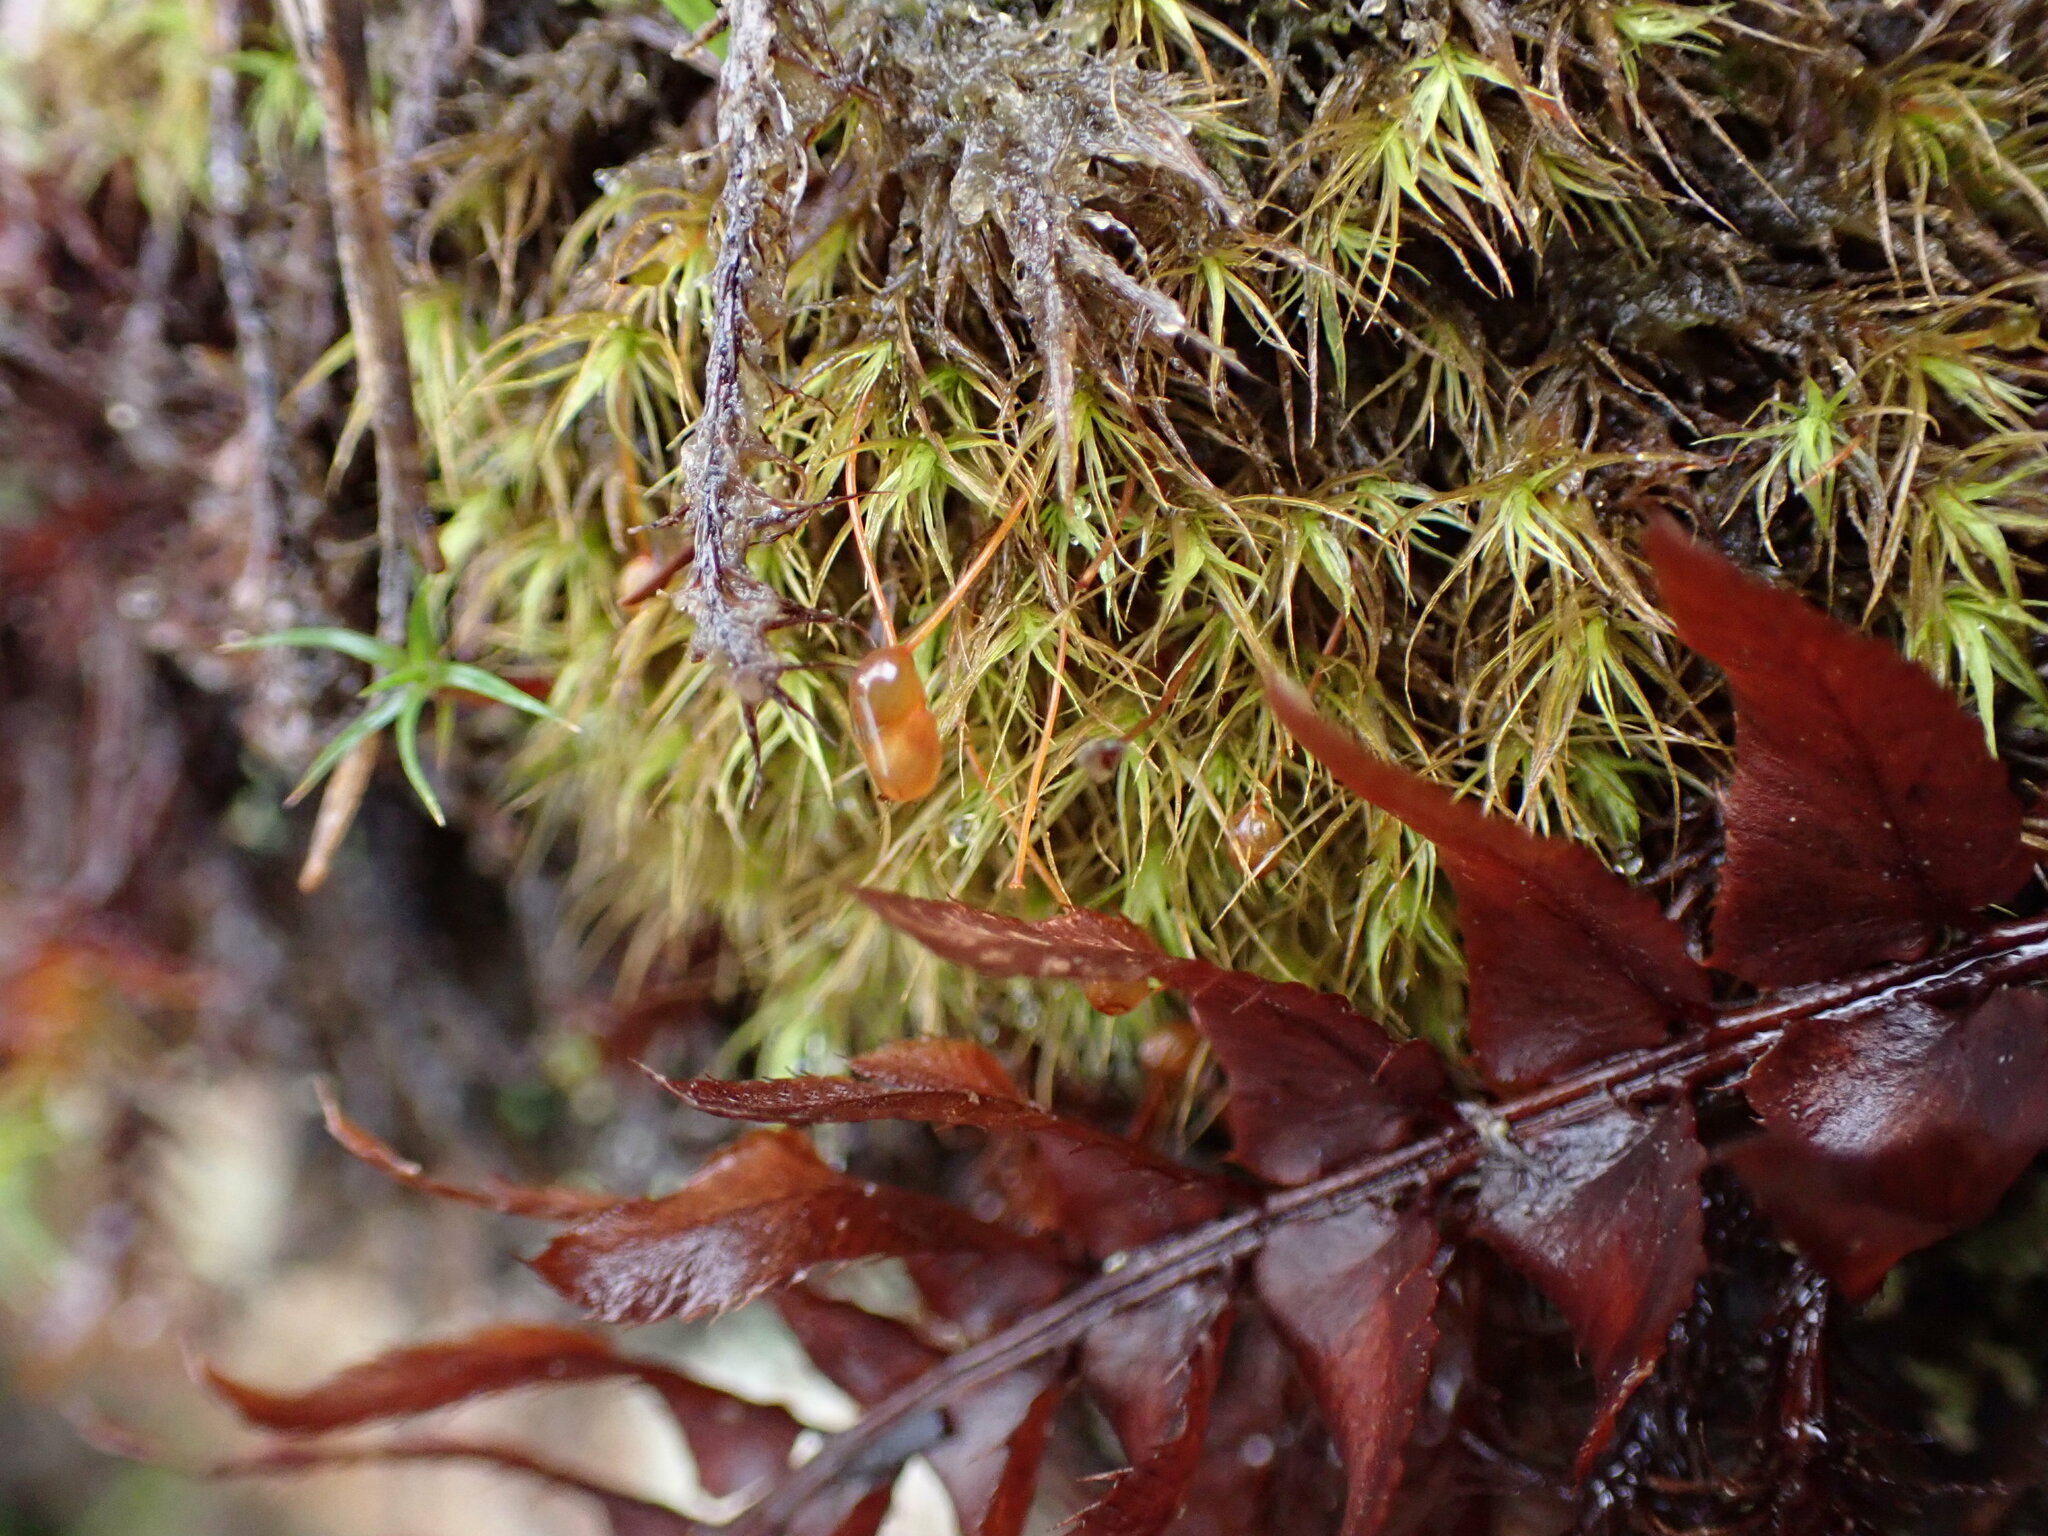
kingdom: Plantae
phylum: Bryophyta
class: Bryopsida
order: Bartramiales
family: Bartramiaceae
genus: Bartramia
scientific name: Bartramia ithyphylla
